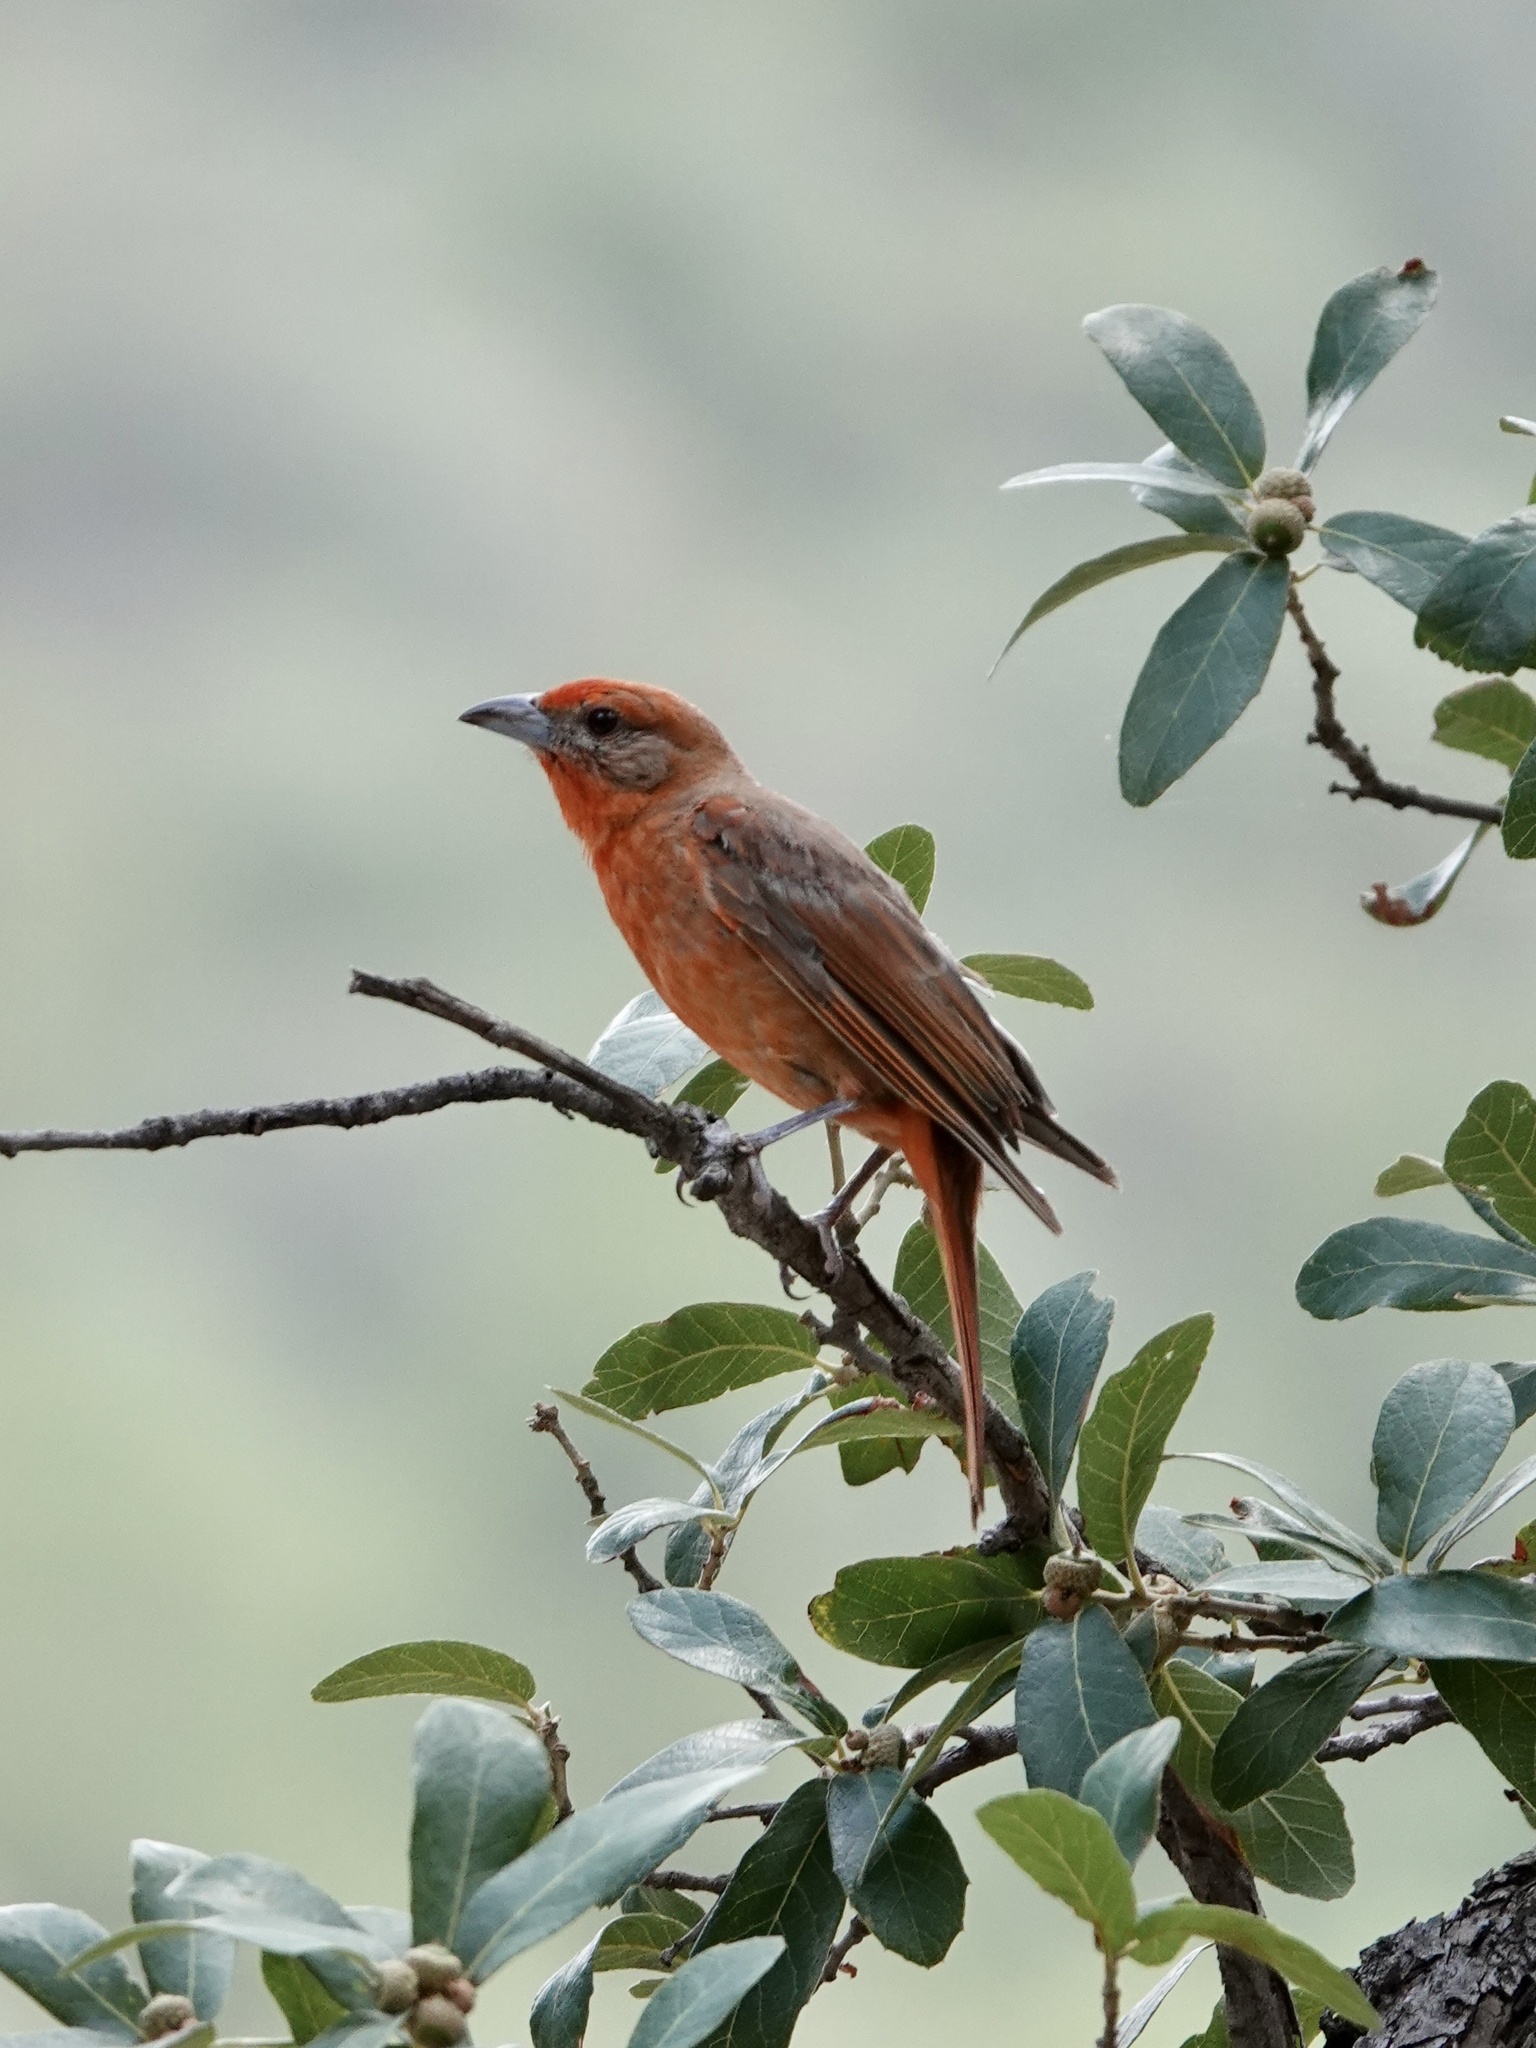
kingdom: Animalia
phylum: Chordata
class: Aves
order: Passeriformes
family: Cardinalidae
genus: Piranga
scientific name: Piranga flava
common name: Red tanager
